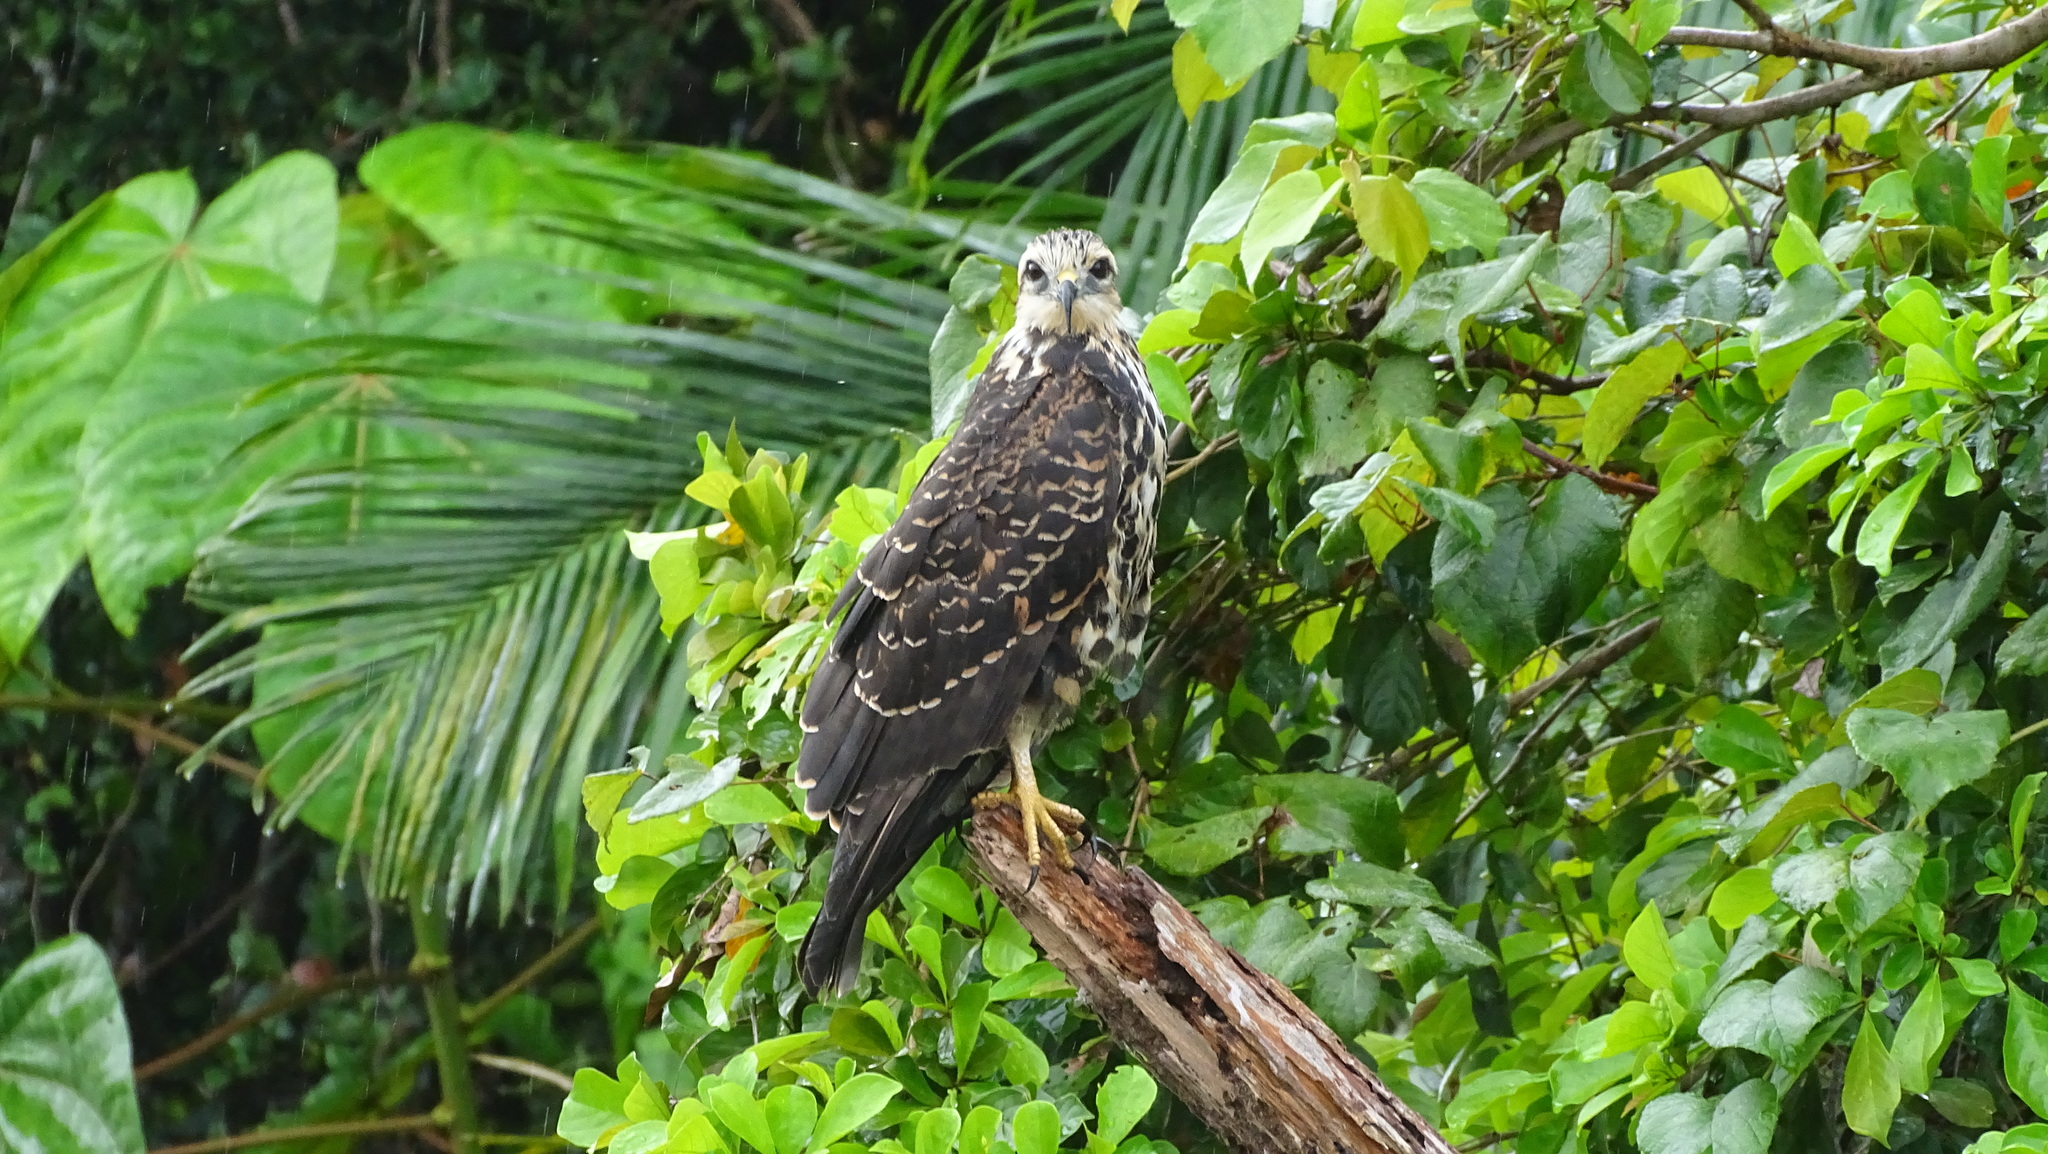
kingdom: Animalia
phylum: Chordata
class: Aves
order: Accipitriformes
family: Accipitridae
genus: Rostrhamus
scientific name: Rostrhamus sociabilis
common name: Snail kite
